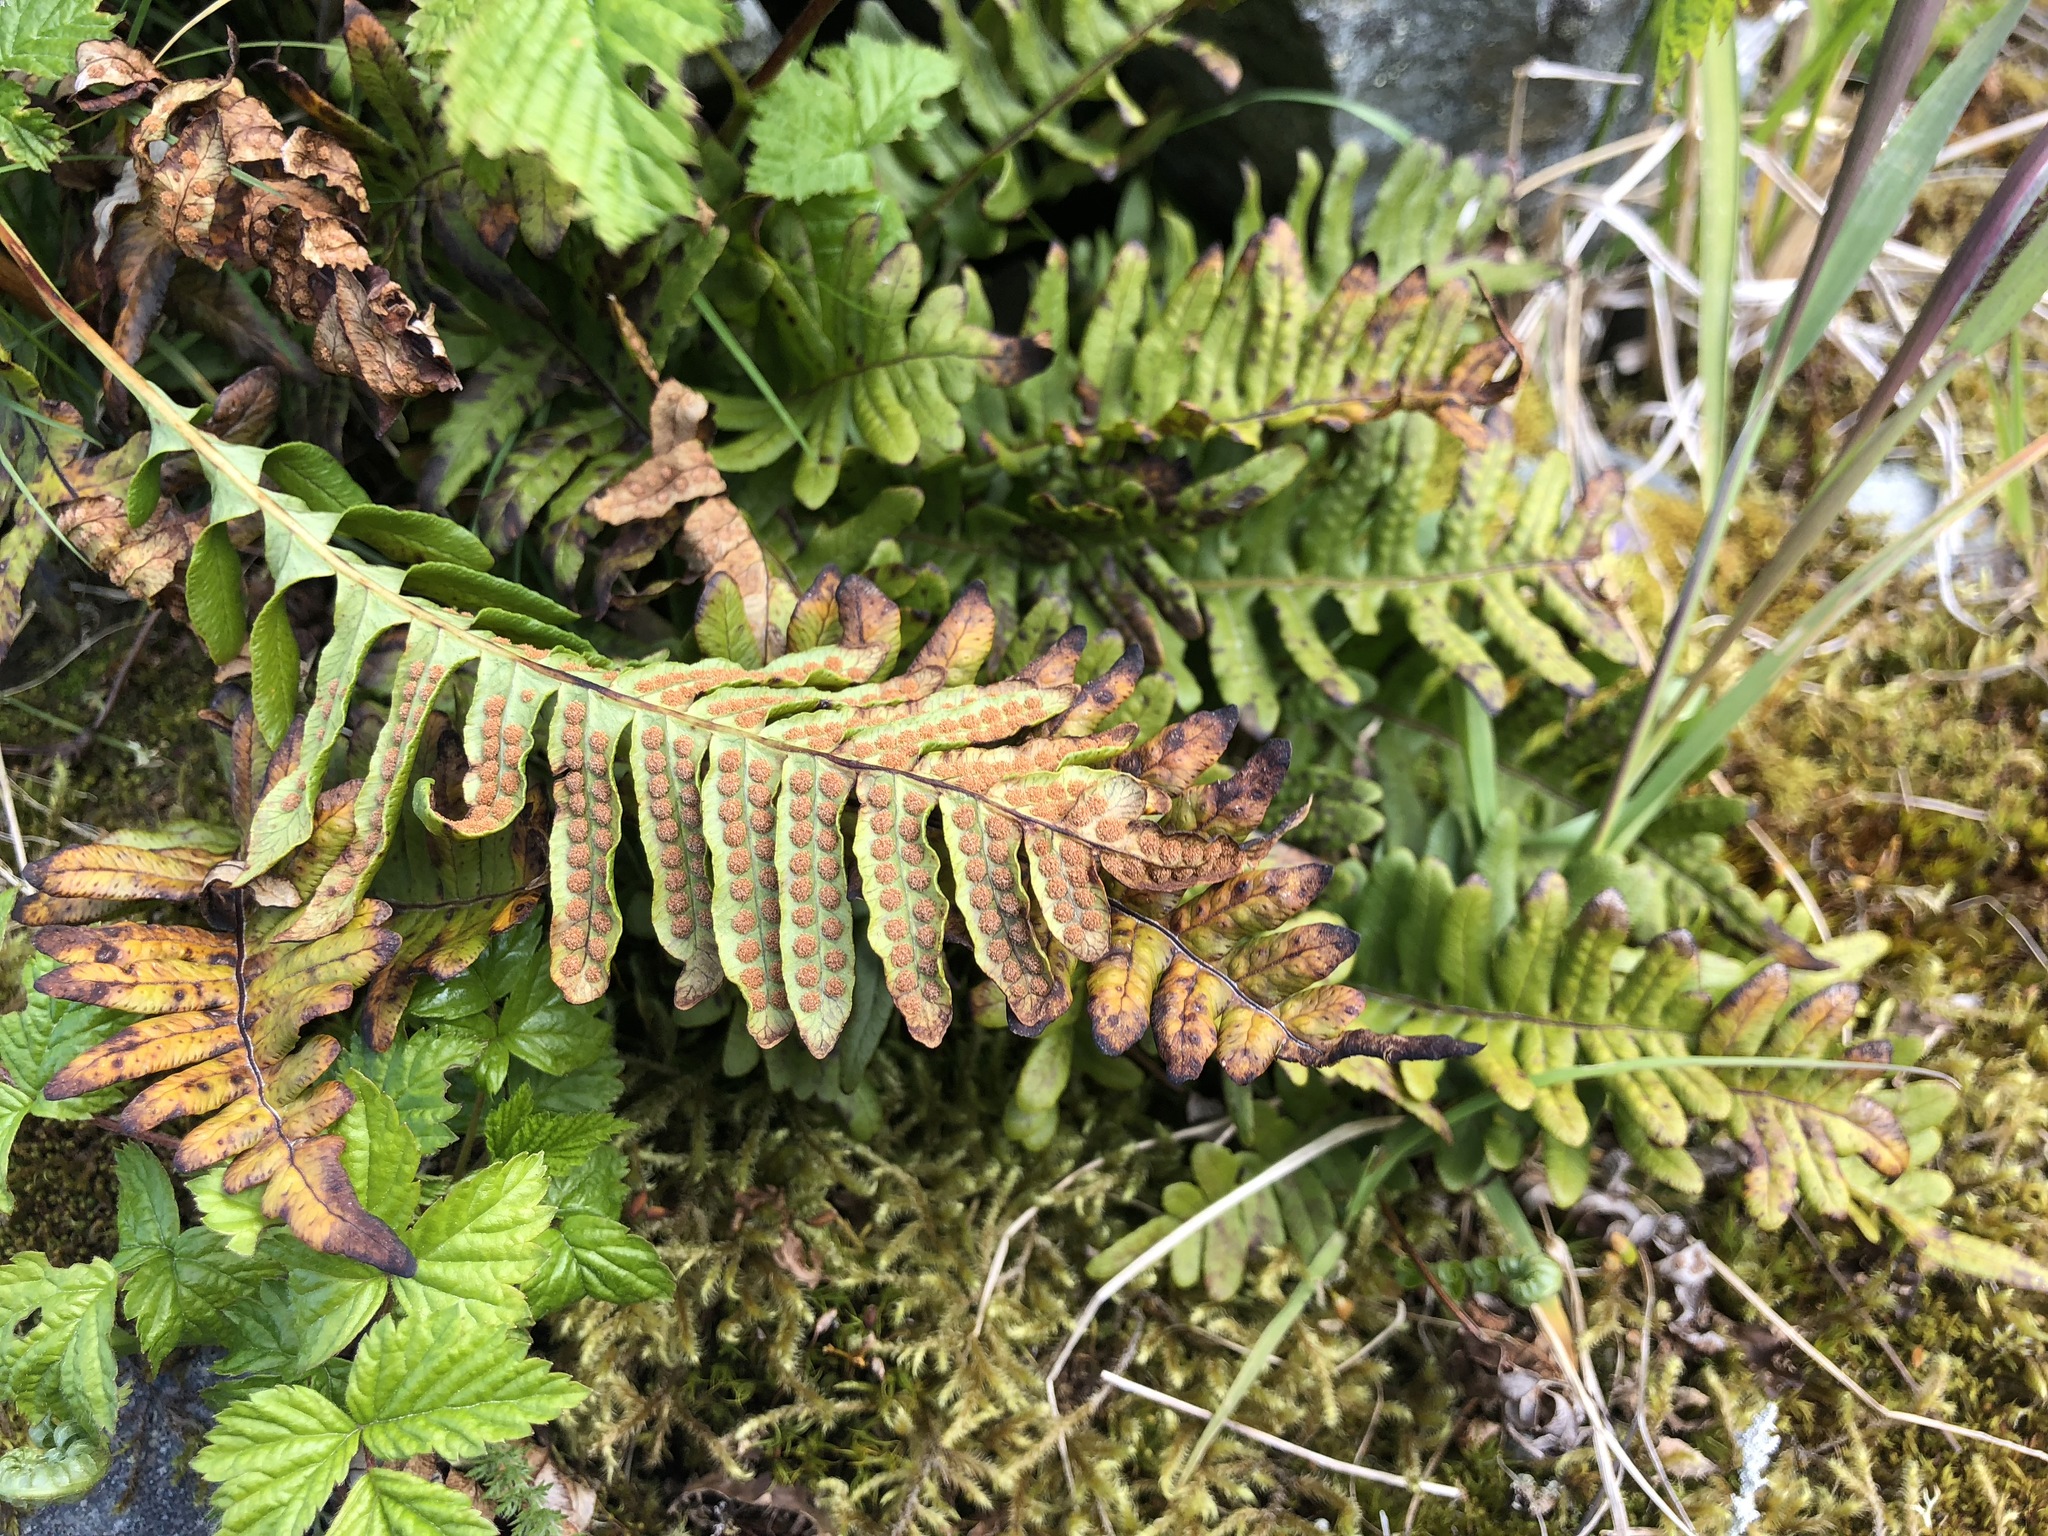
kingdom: Plantae
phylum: Tracheophyta
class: Polypodiopsida
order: Polypodiales
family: Polypodiaceae
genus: Polypodium
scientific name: Polypodium glycyrrhiza
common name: Licorice fern
